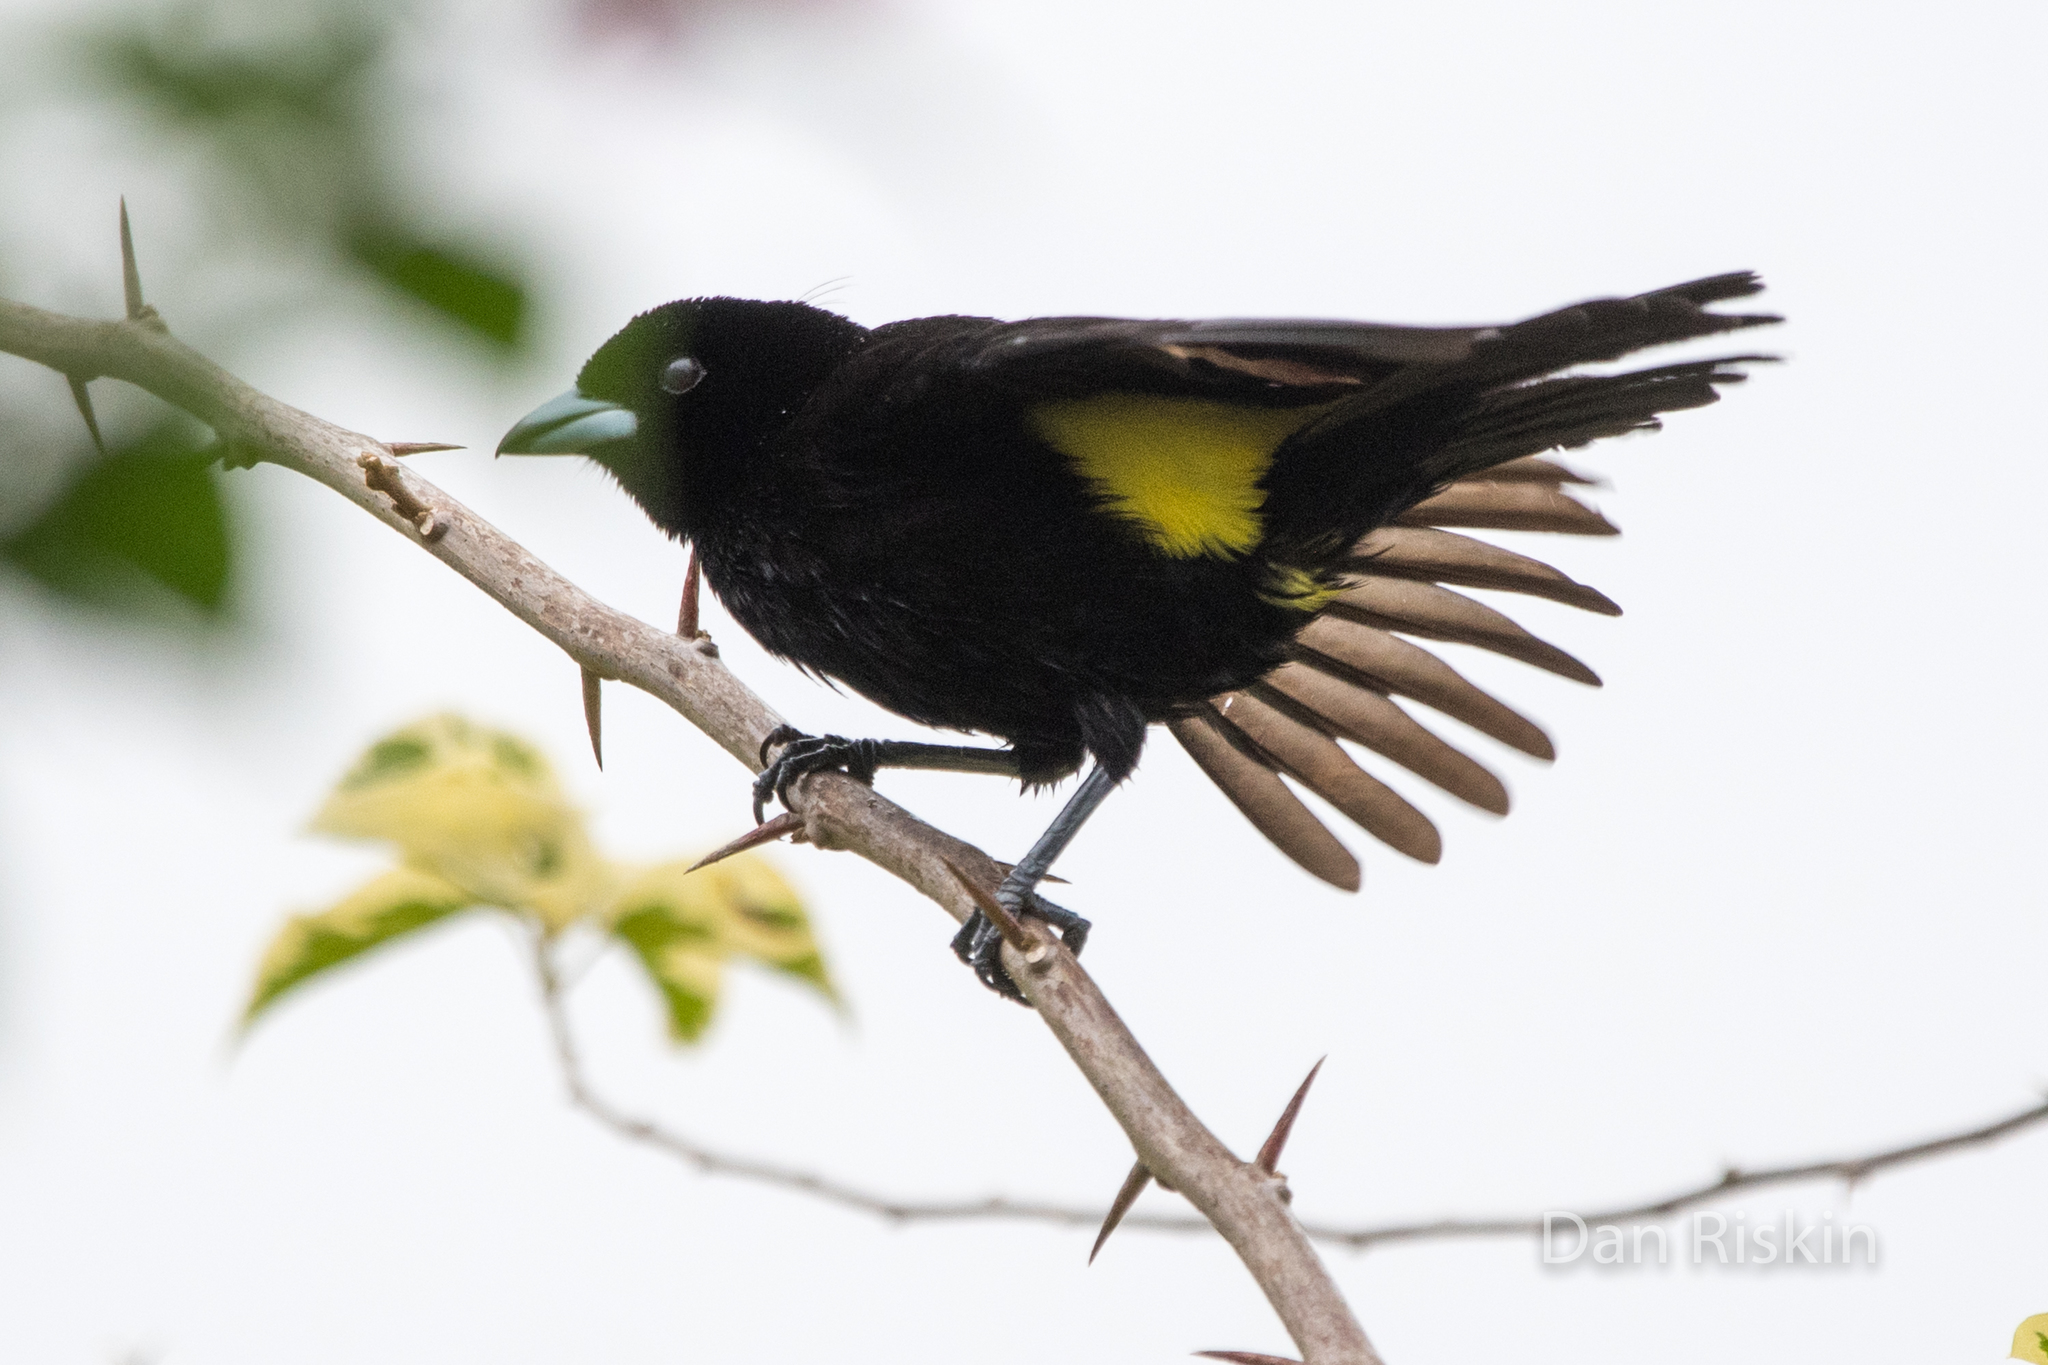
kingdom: Animalia
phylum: Chordata
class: Aves
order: Passeriformes
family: Thraupidae
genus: Ramphocelus
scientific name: Ramphocelus flammigerus
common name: Flame-rumped tanager
